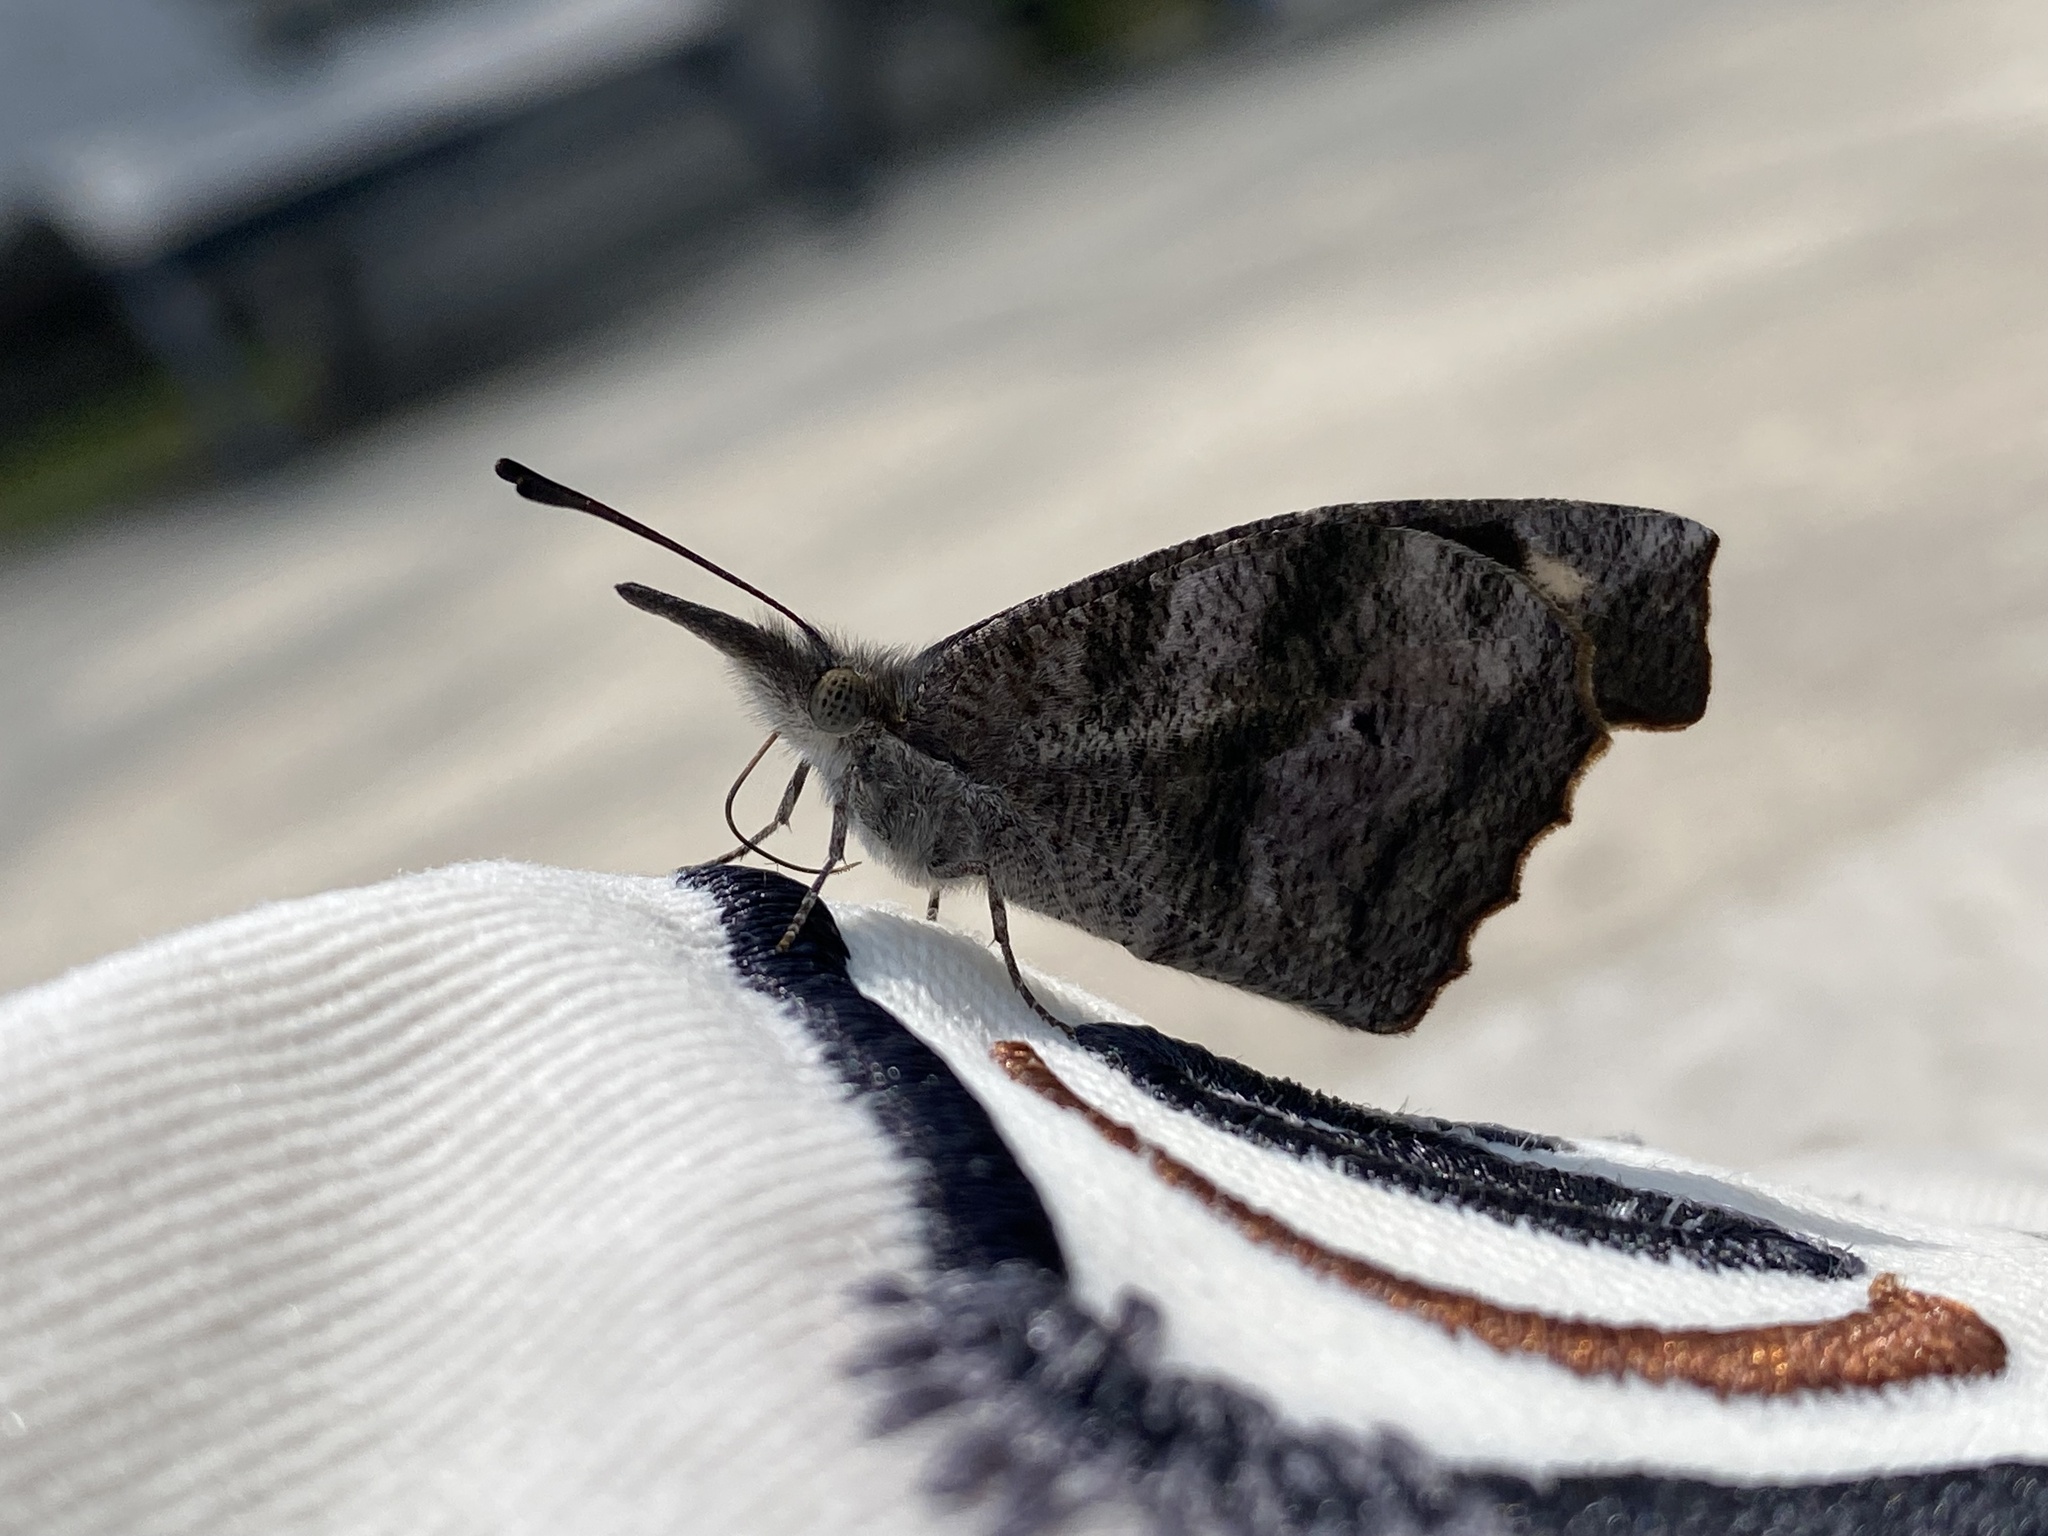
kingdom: Animalia
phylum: Arthropoda
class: Insecta
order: Lepidoptera
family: Nymphalidae
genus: Libytheana
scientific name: Libytheana carinenta
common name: American snout
